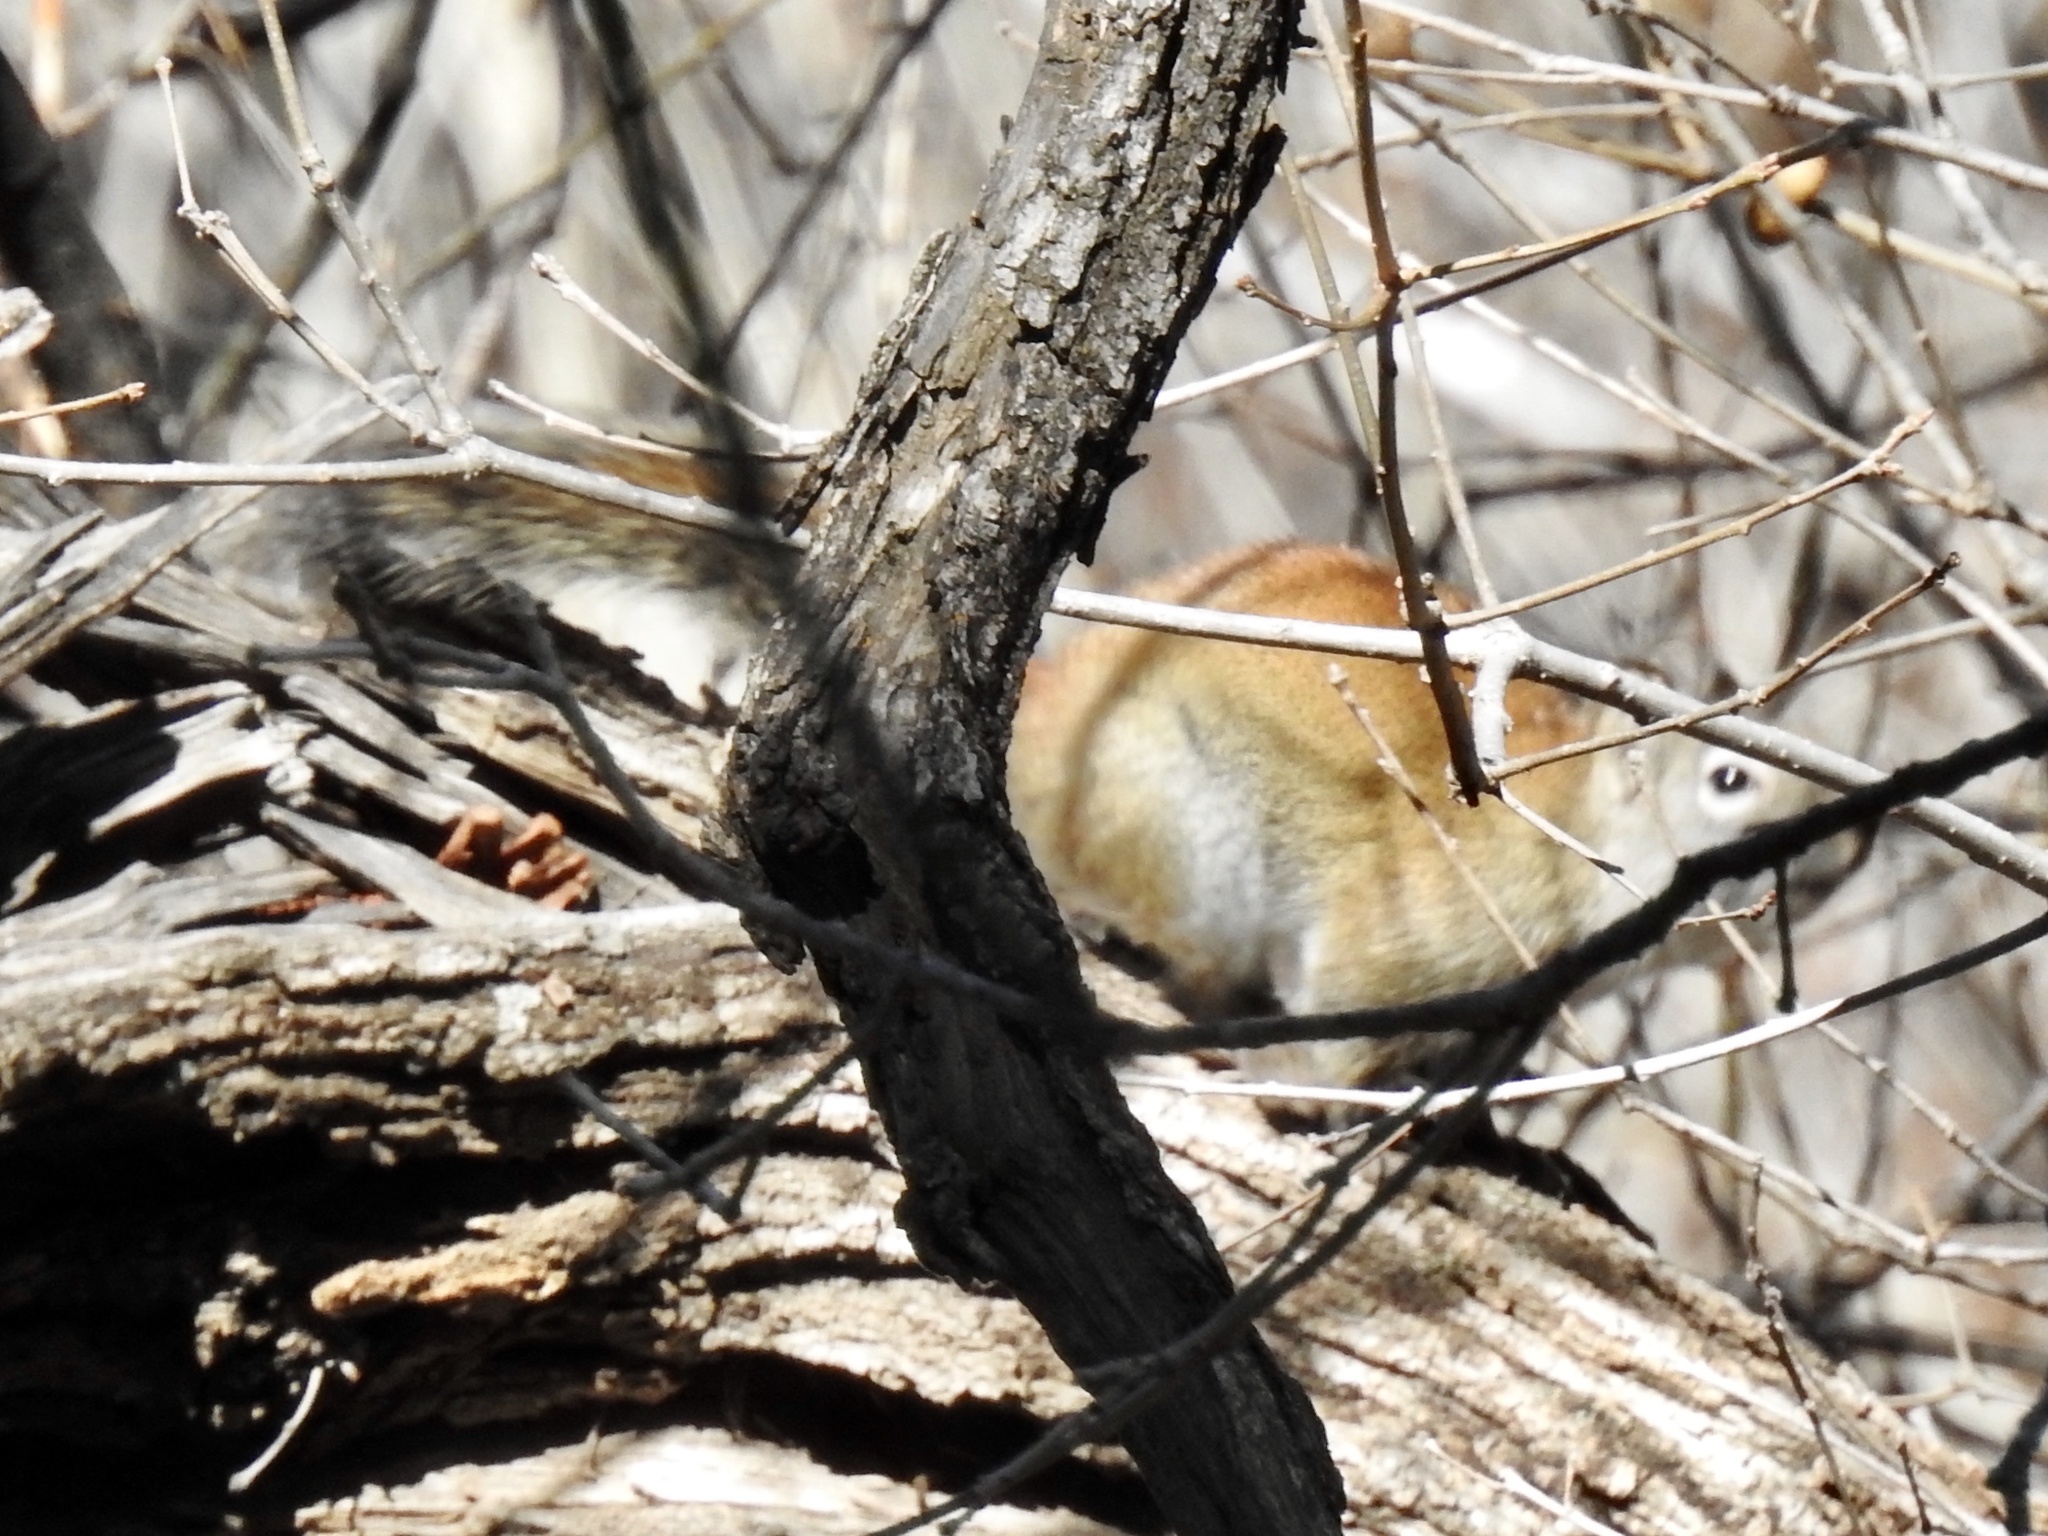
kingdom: Animalia
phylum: Chordata
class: Mammalia
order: Rodentia
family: Sciuridae
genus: Tamiasciurus
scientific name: Tamiasciurus hudsonicus
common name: Red squirrel
